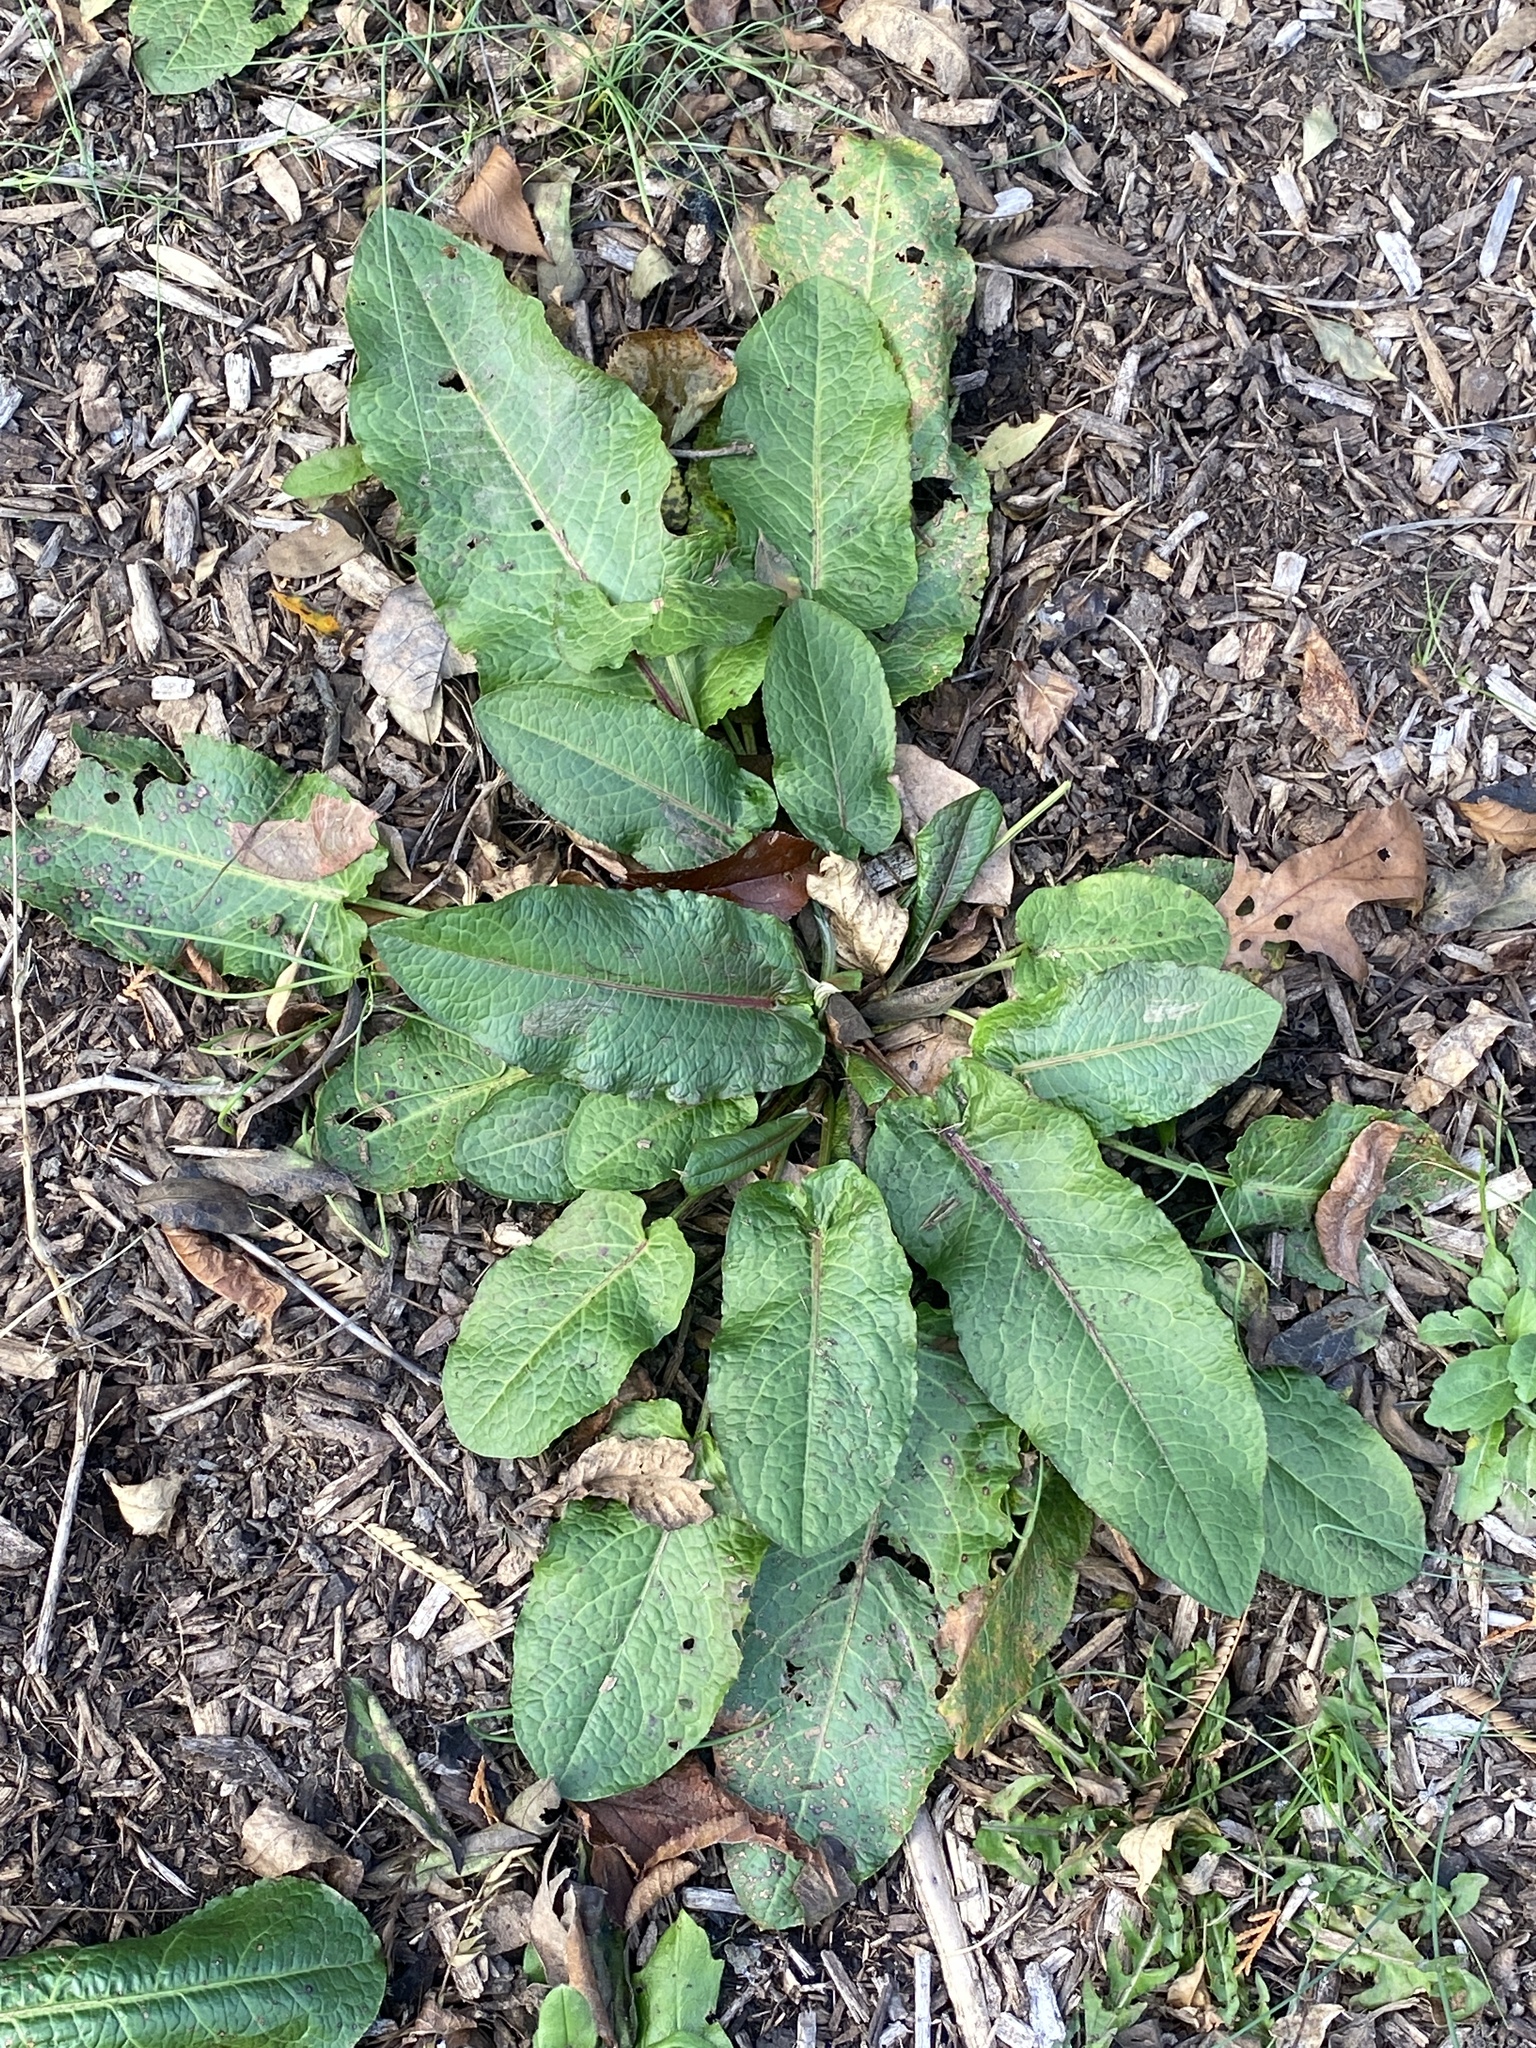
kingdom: Plantae
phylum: Tracheophyta
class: Magnoliopsida
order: Caryophyllales
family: Polygonaceae
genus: Rumex
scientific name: Rumex obtusifolius
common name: Bitter dock
